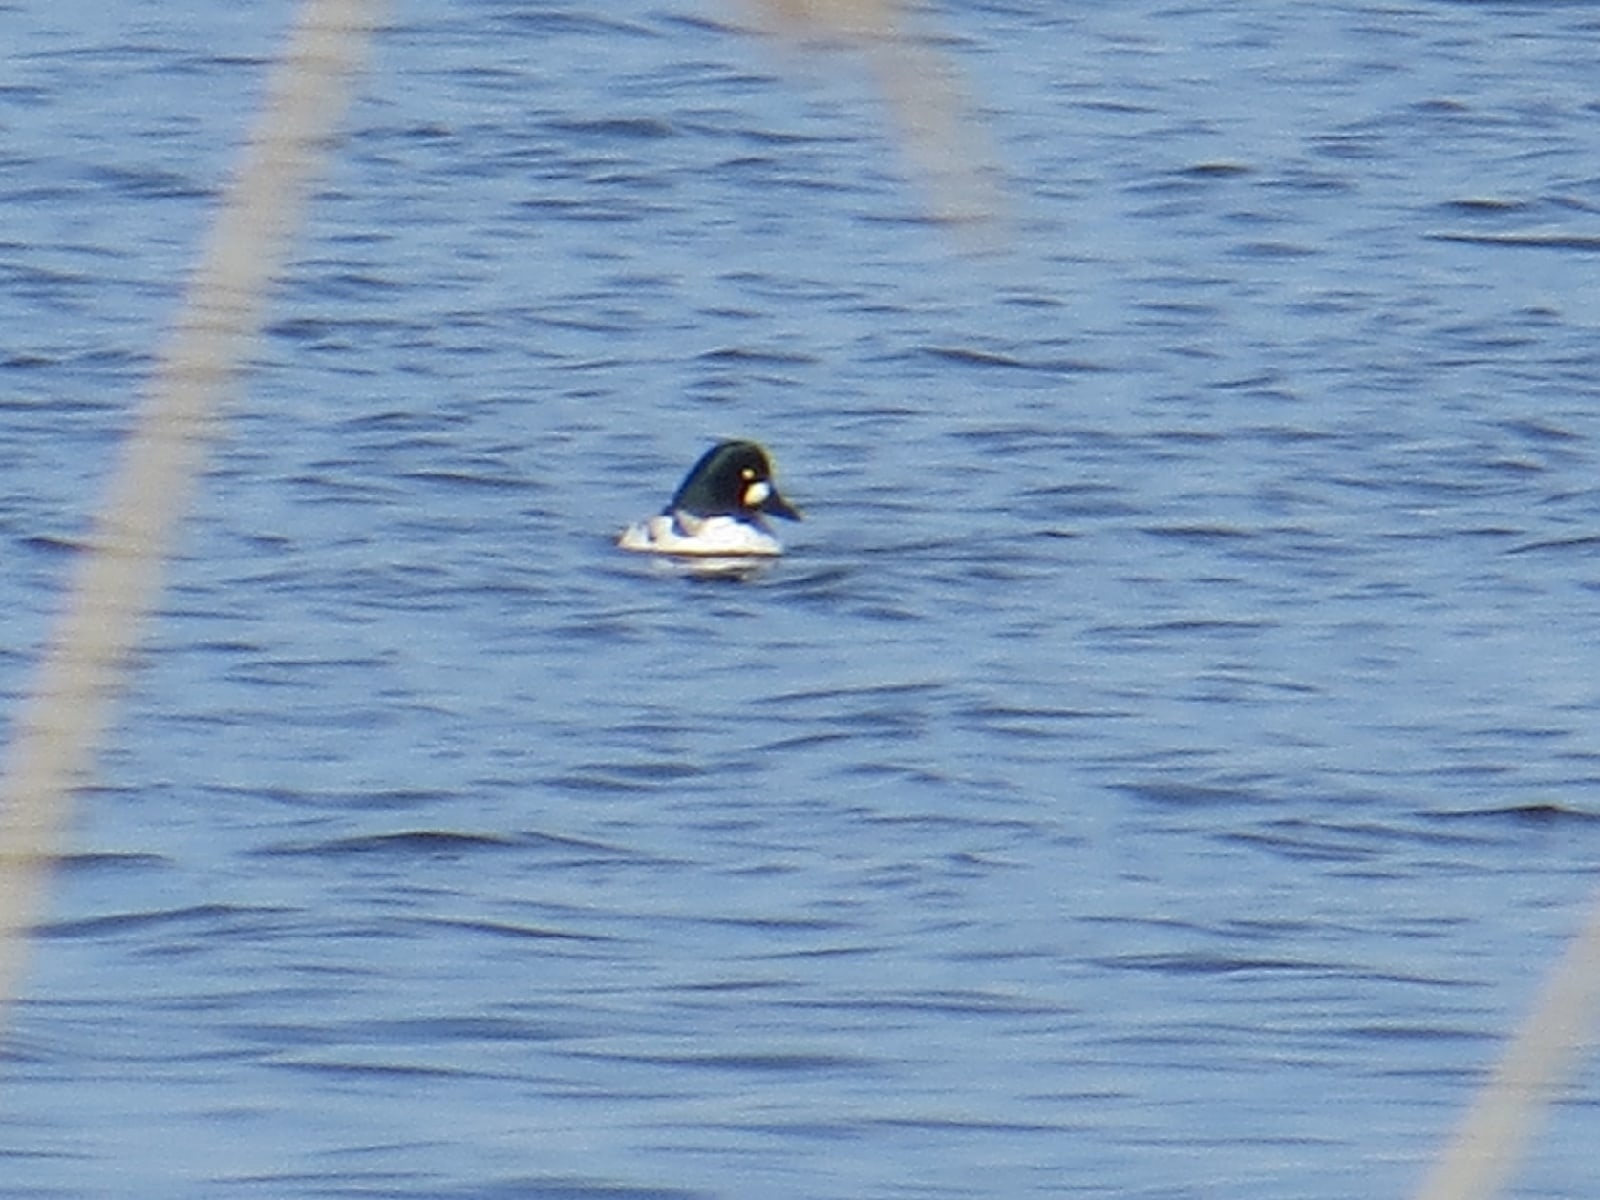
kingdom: Animalia
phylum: Chordata
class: Aves
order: Anseriformes
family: Anatidae
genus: Bucephala
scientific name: Bucephala clangula
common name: Common goldeneye
